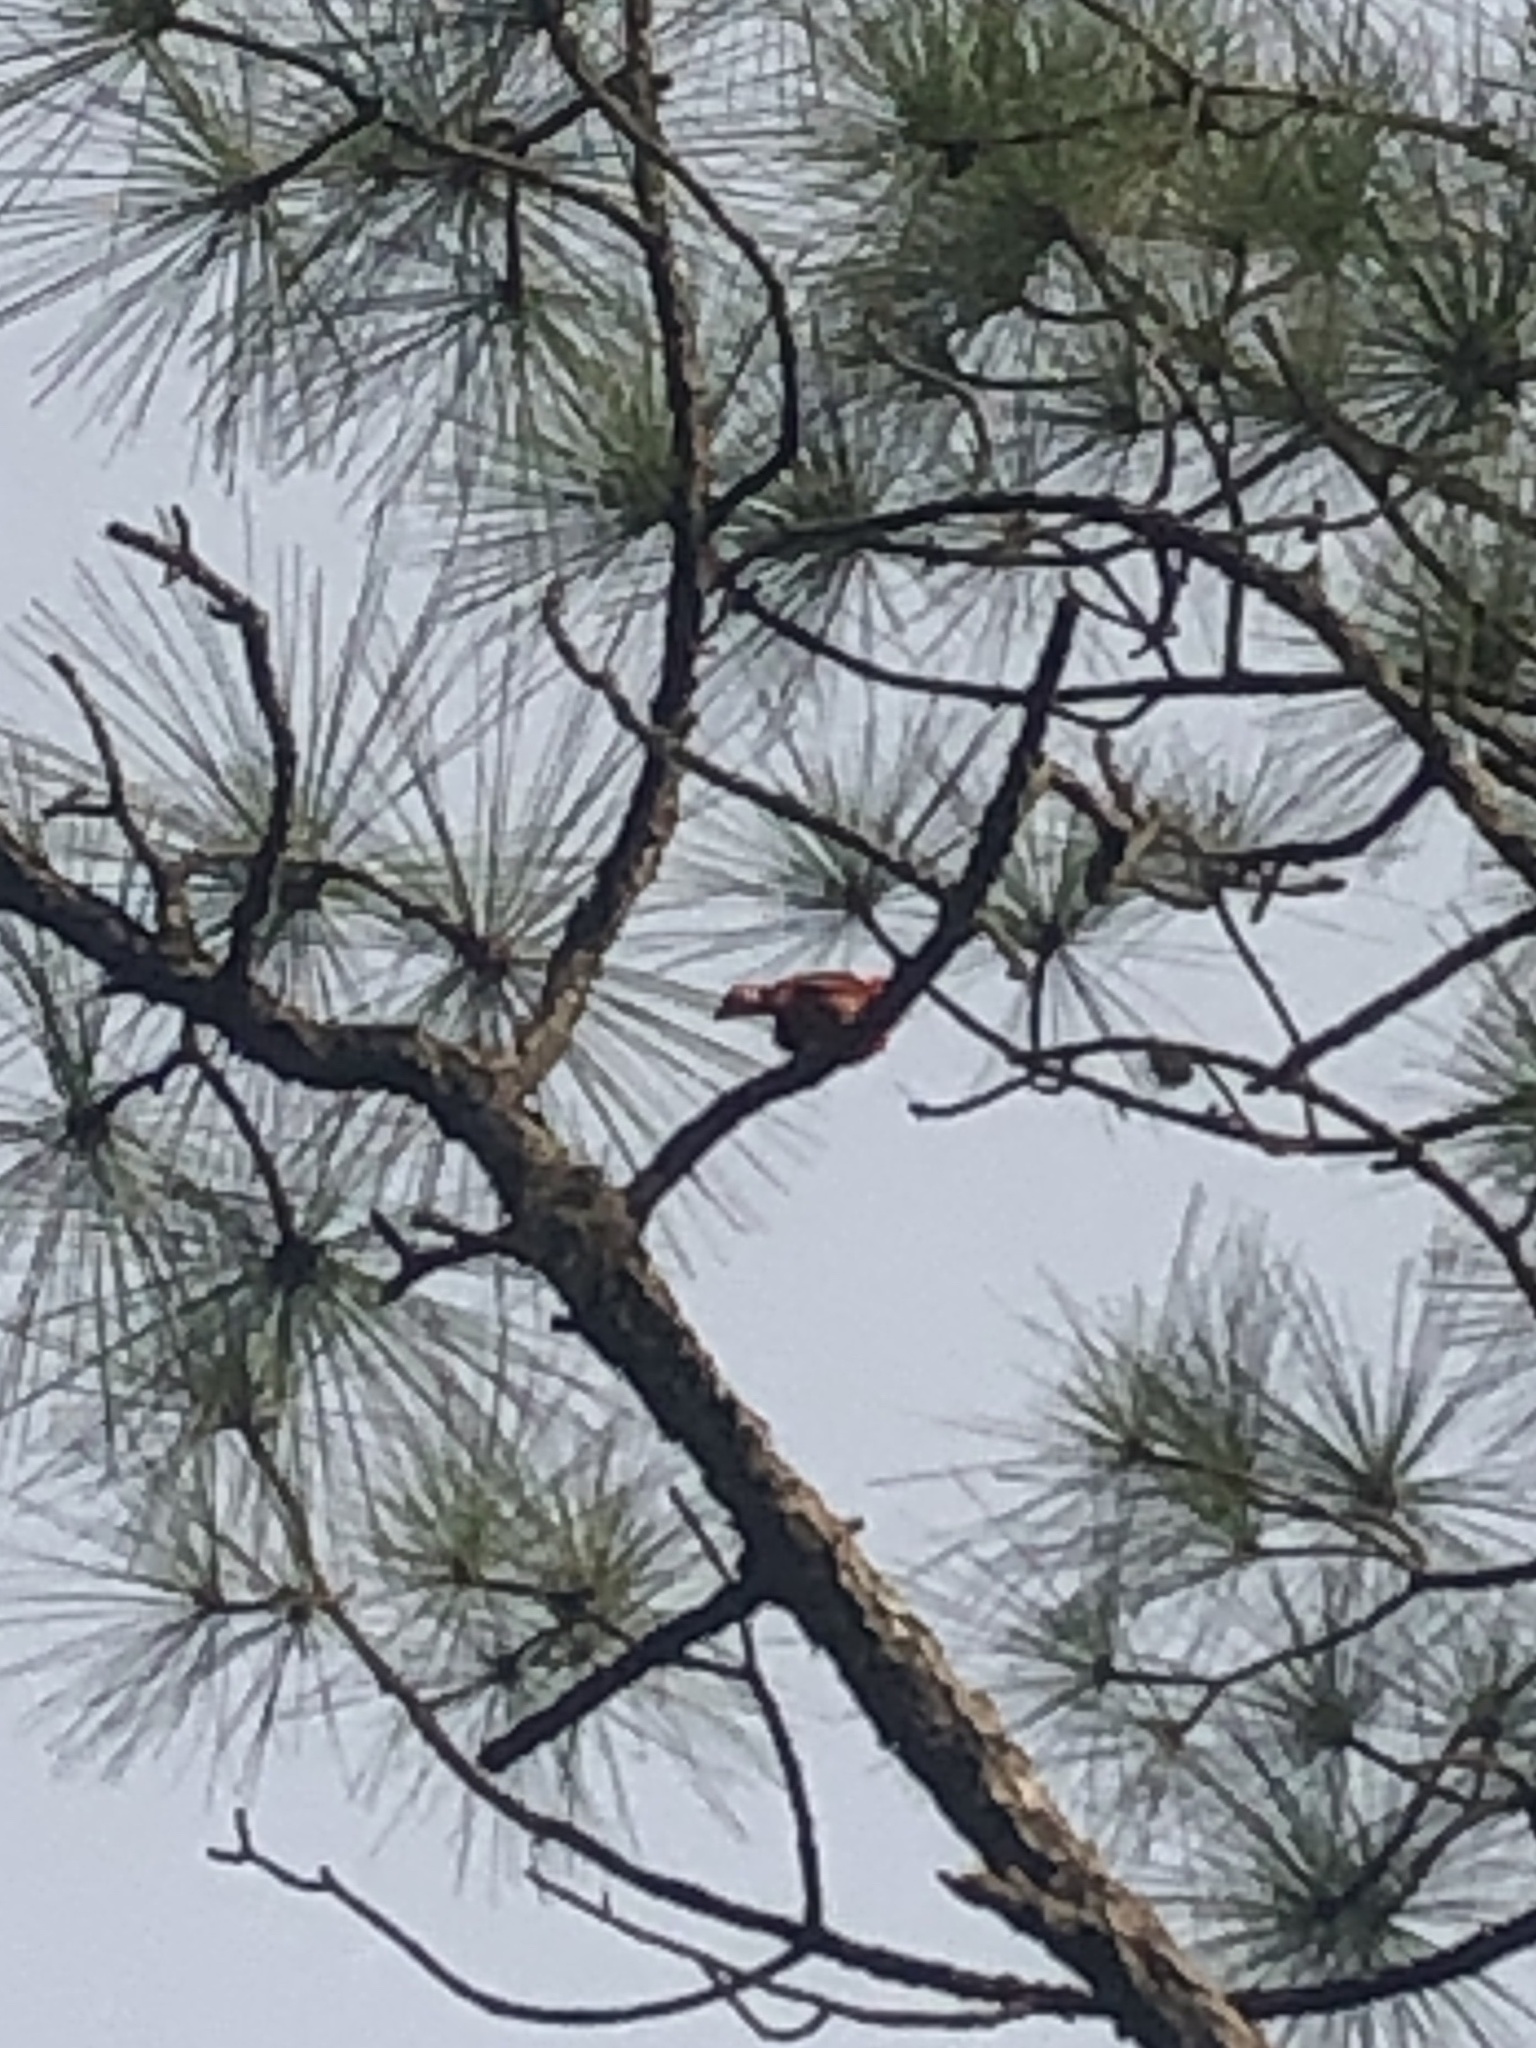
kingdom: Animalia
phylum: Chordata
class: Aves
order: Passeriformes
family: Cardinalidae
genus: Cardinalis
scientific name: Cardinalis cardinalis
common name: Northern cardinal
